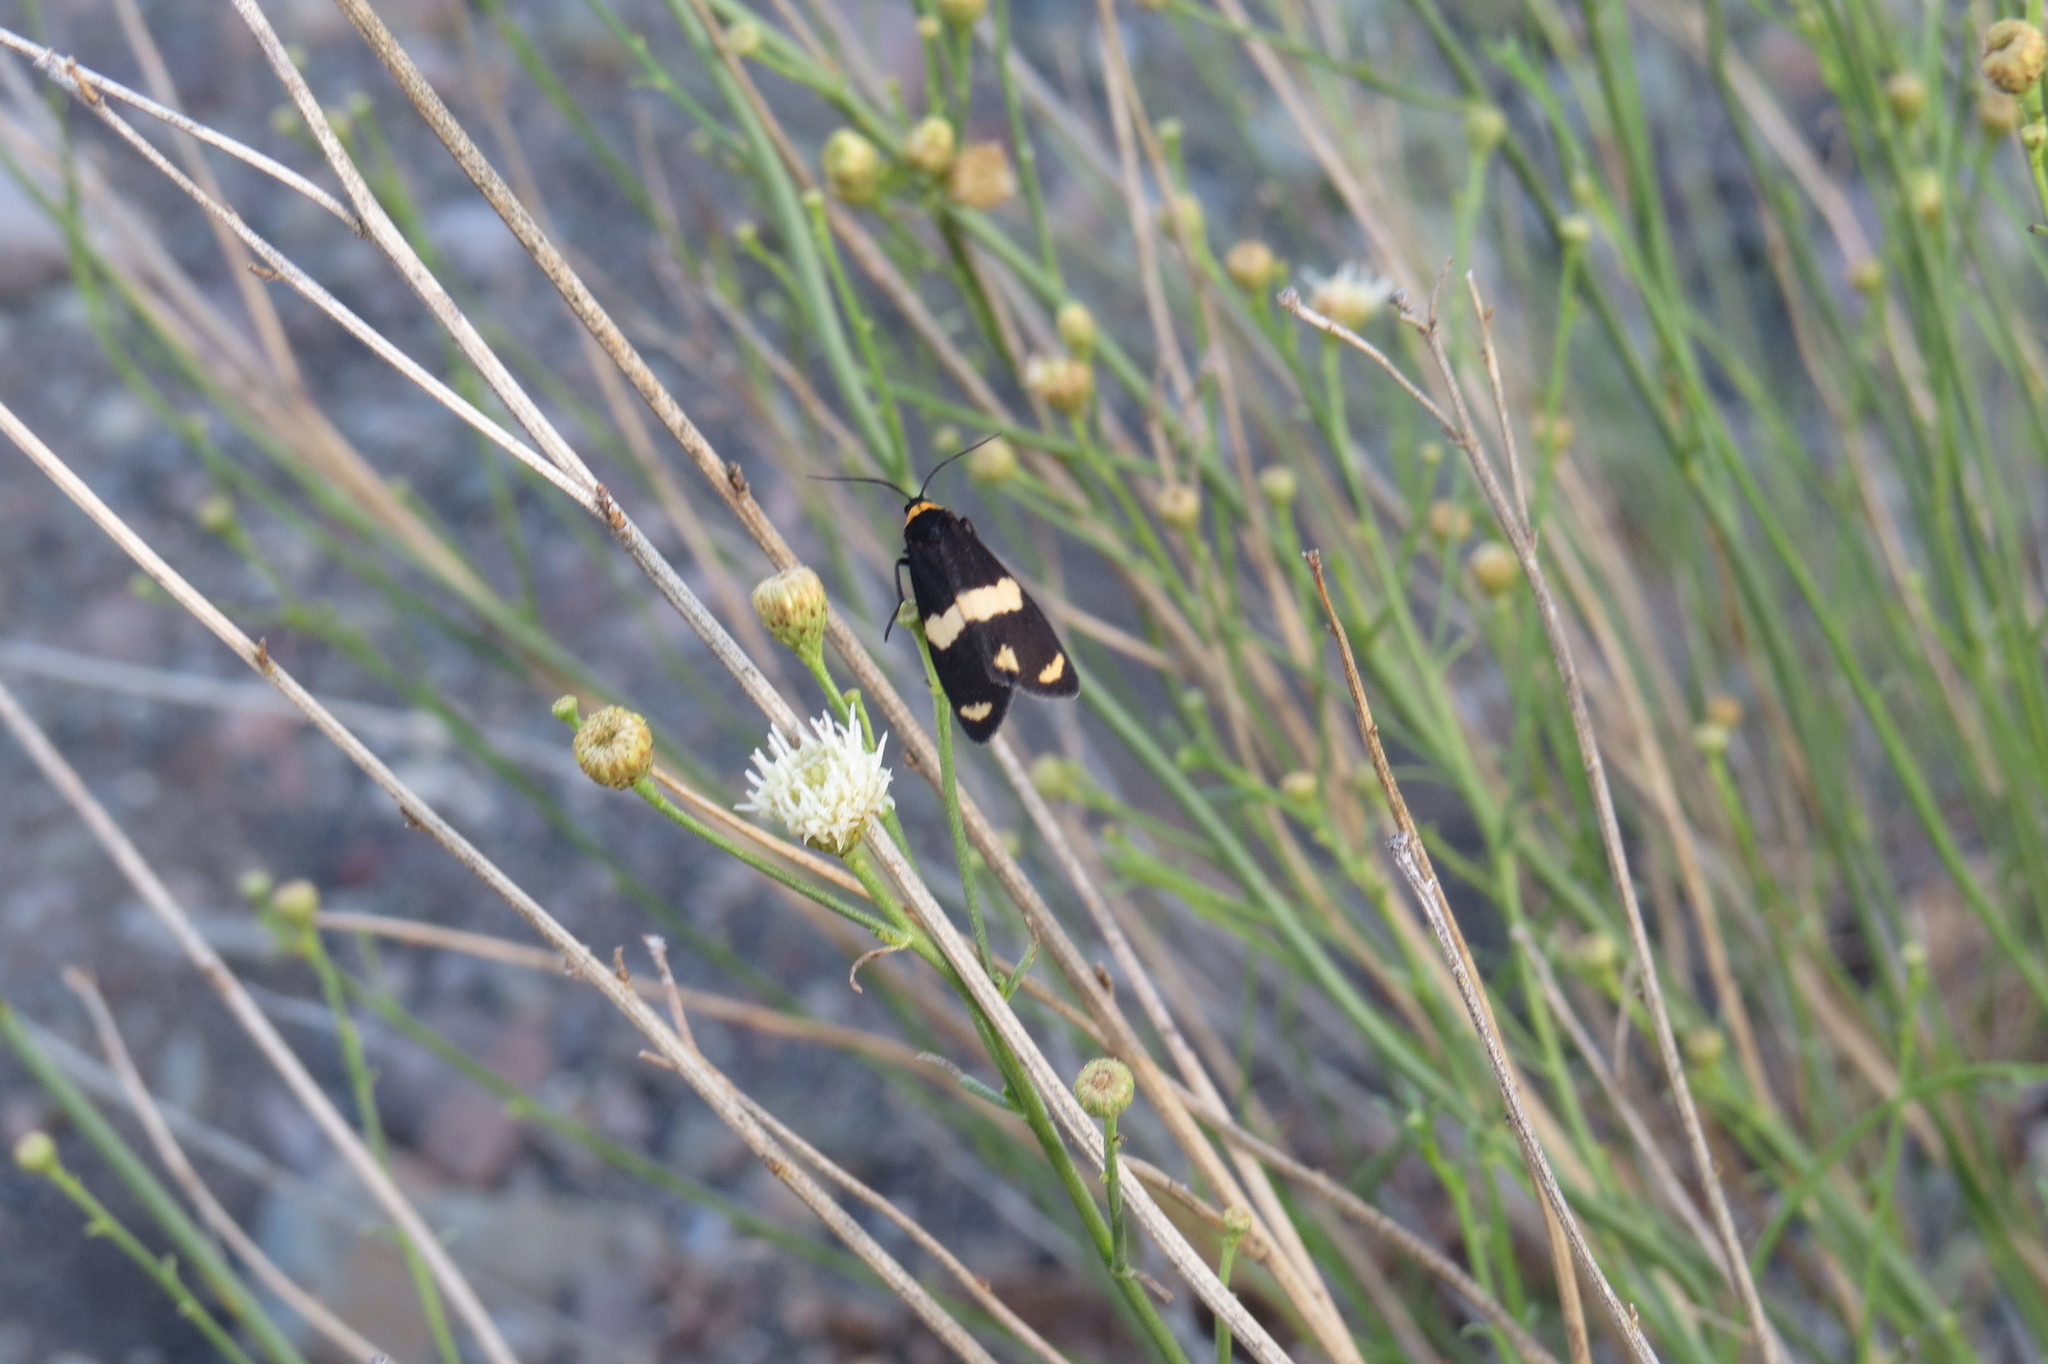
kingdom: Animalia
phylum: Arthropoda
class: Insecta
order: Lepidoptera
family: Erebidae
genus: Eudesmia
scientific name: Eudesmia
